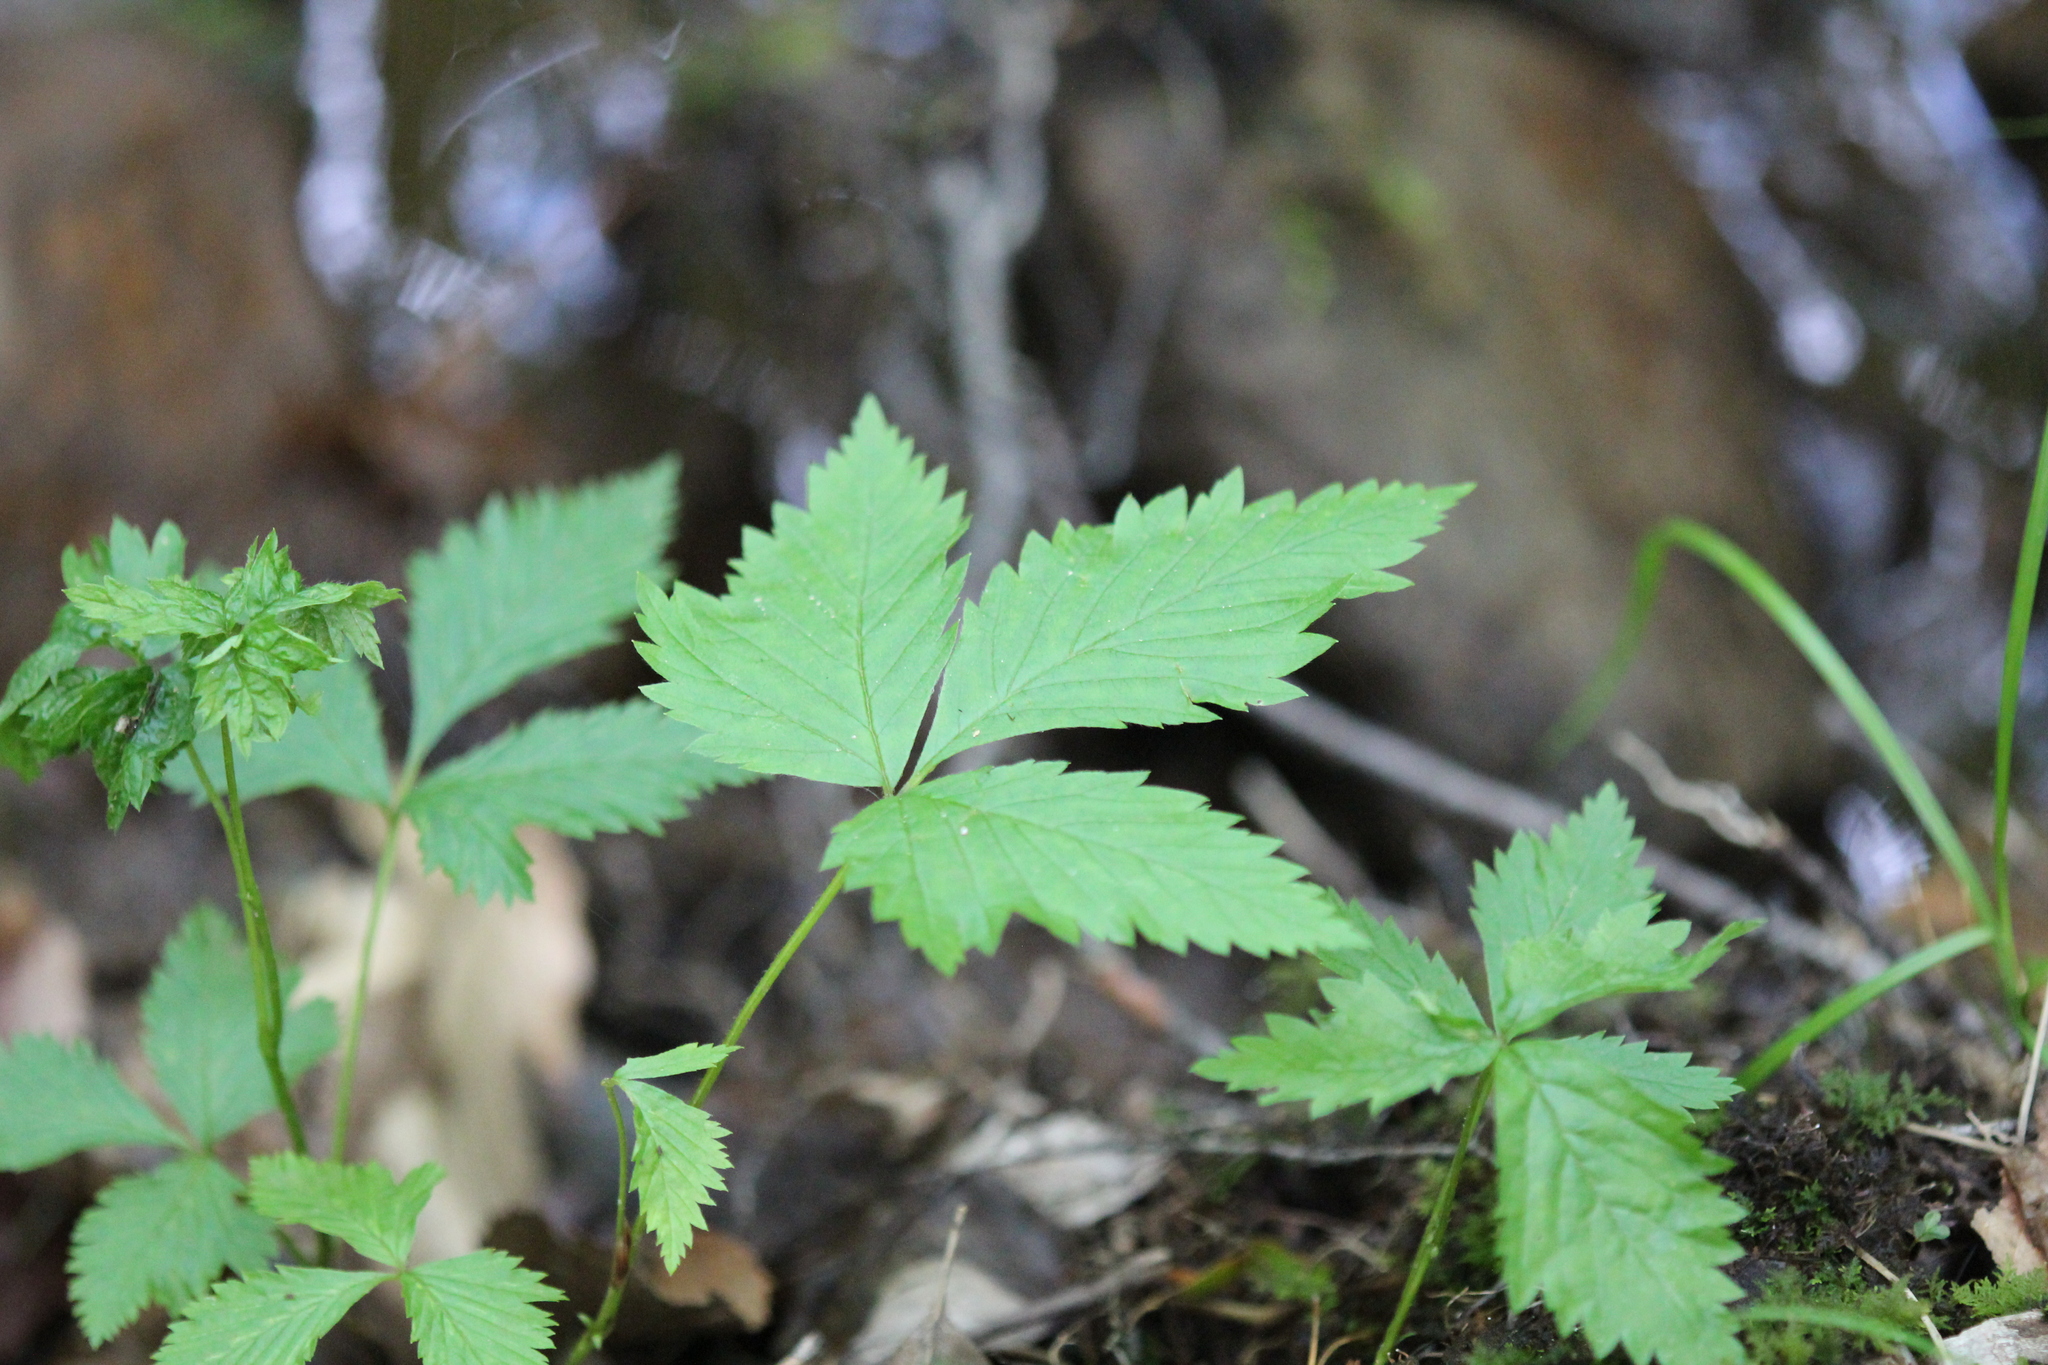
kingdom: Plantae
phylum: Tracheophyta
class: Magnoliopsida
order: Rosales
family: Rosaceae
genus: Rubus
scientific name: Rubus pubescens
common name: Dwarf raspberry
